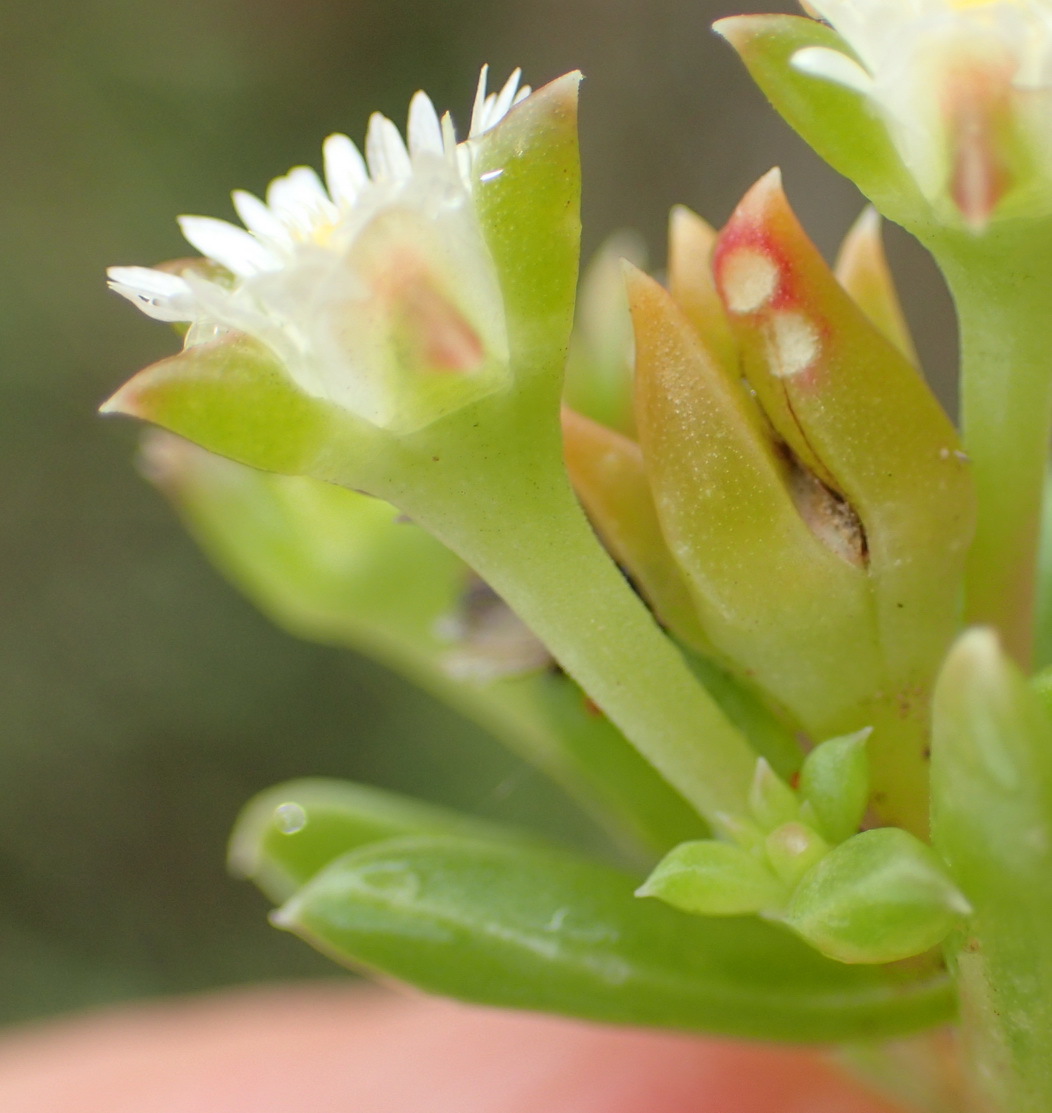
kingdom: Plantae
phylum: Tracheophyta
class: Magnoliopsida
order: Caryophyllales
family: Aizoaceae
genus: Delosperma
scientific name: Delosperma inconspicuum
